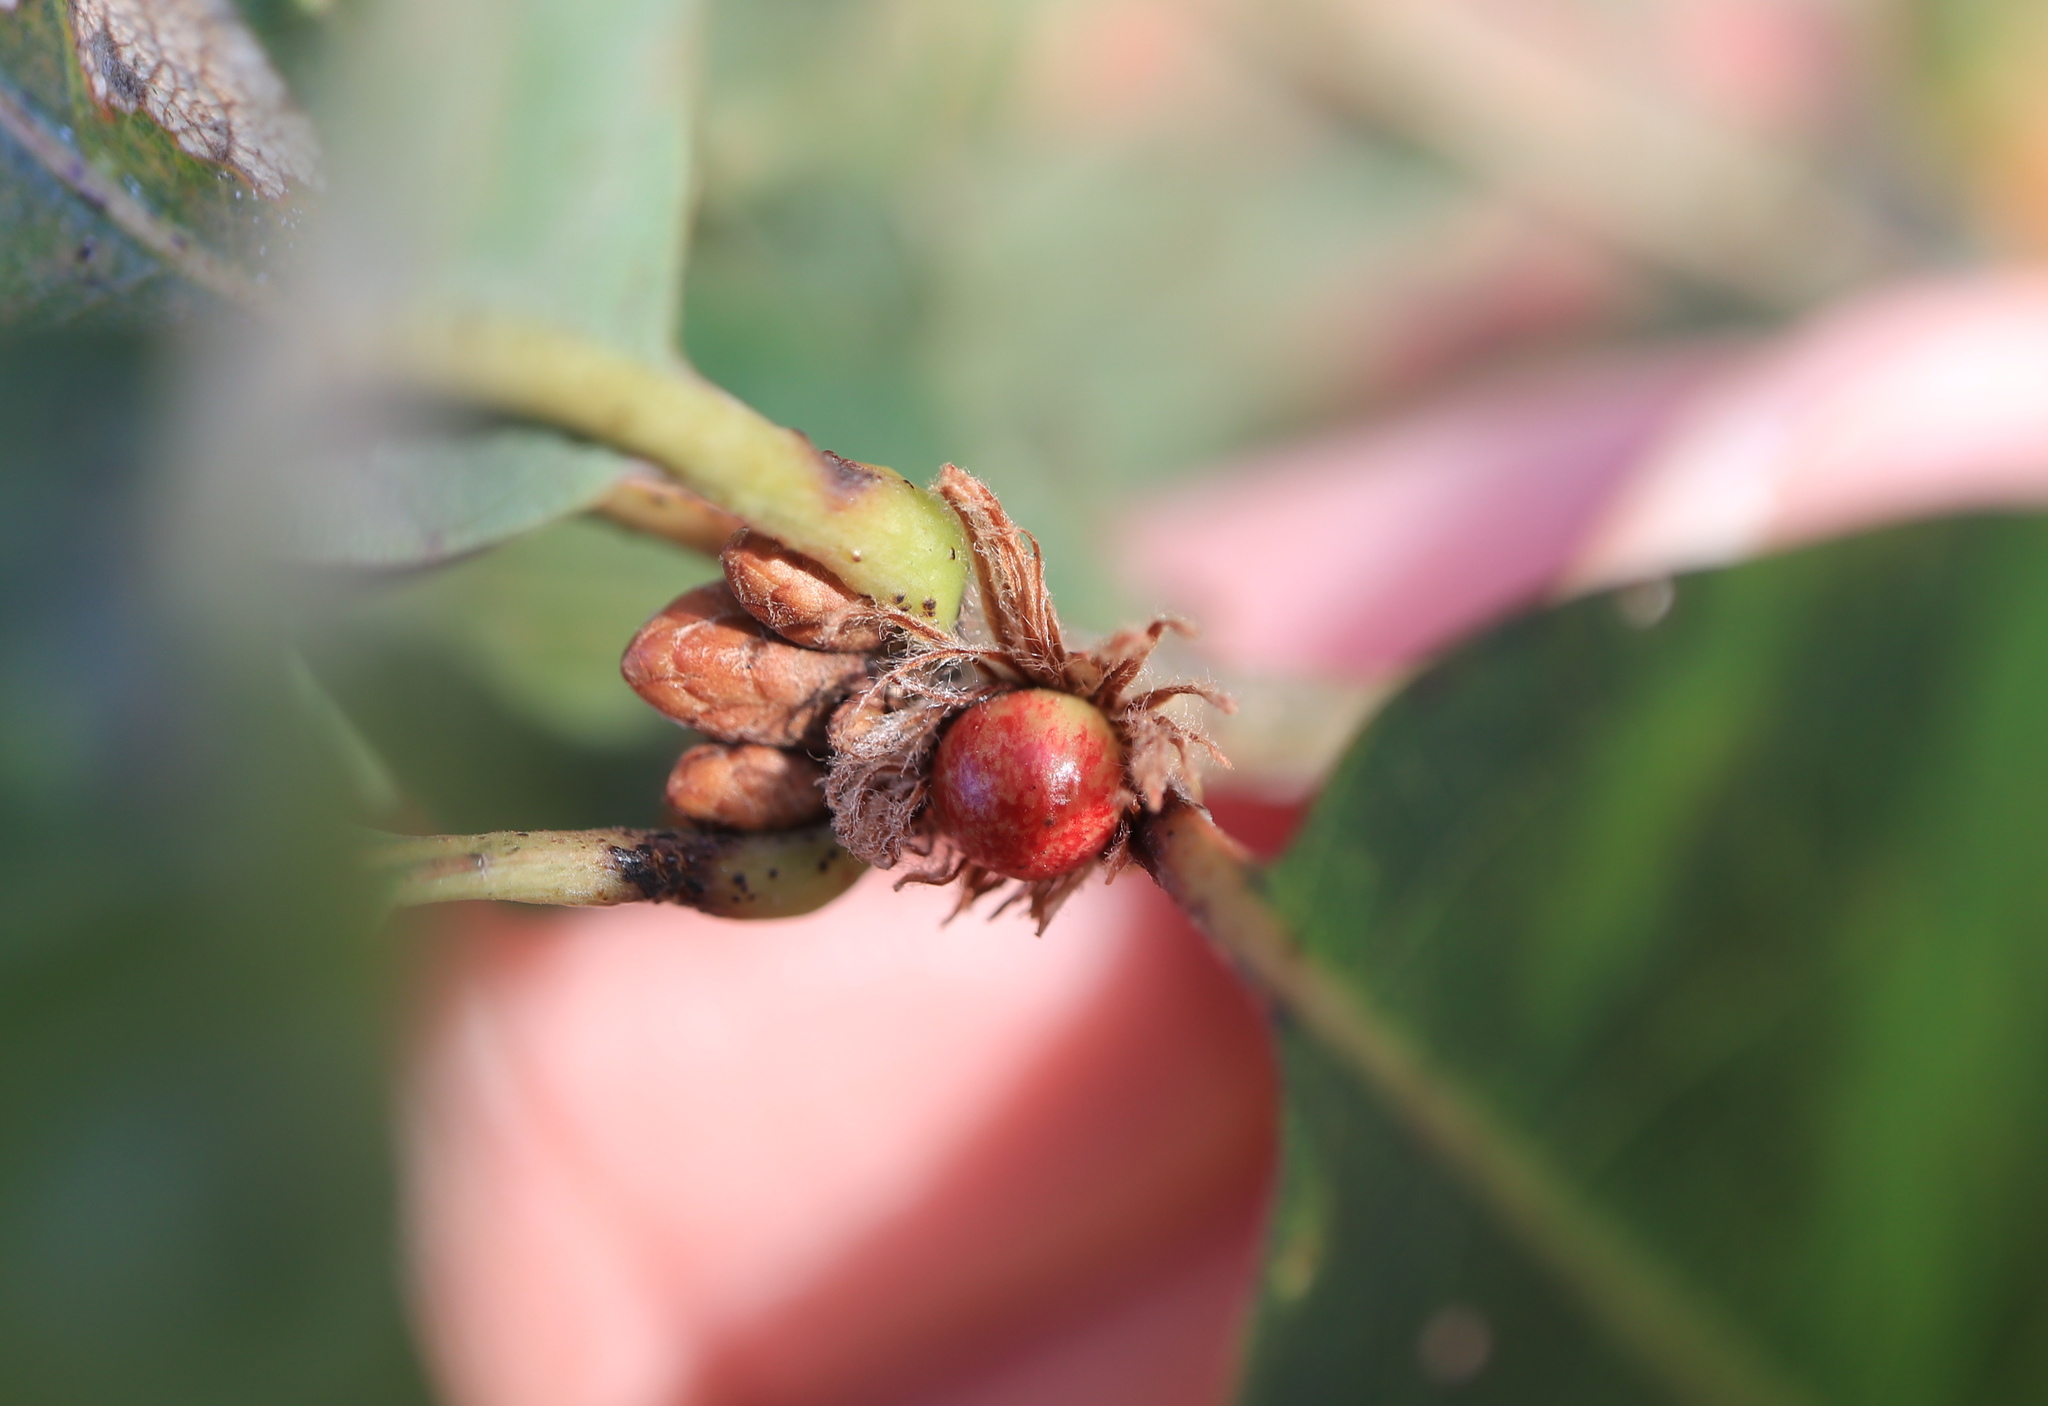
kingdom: Animalia
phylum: Arthropoda
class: Insecta
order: Hymenoptera
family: Cynipidae
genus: Andricus
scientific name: Andricus
